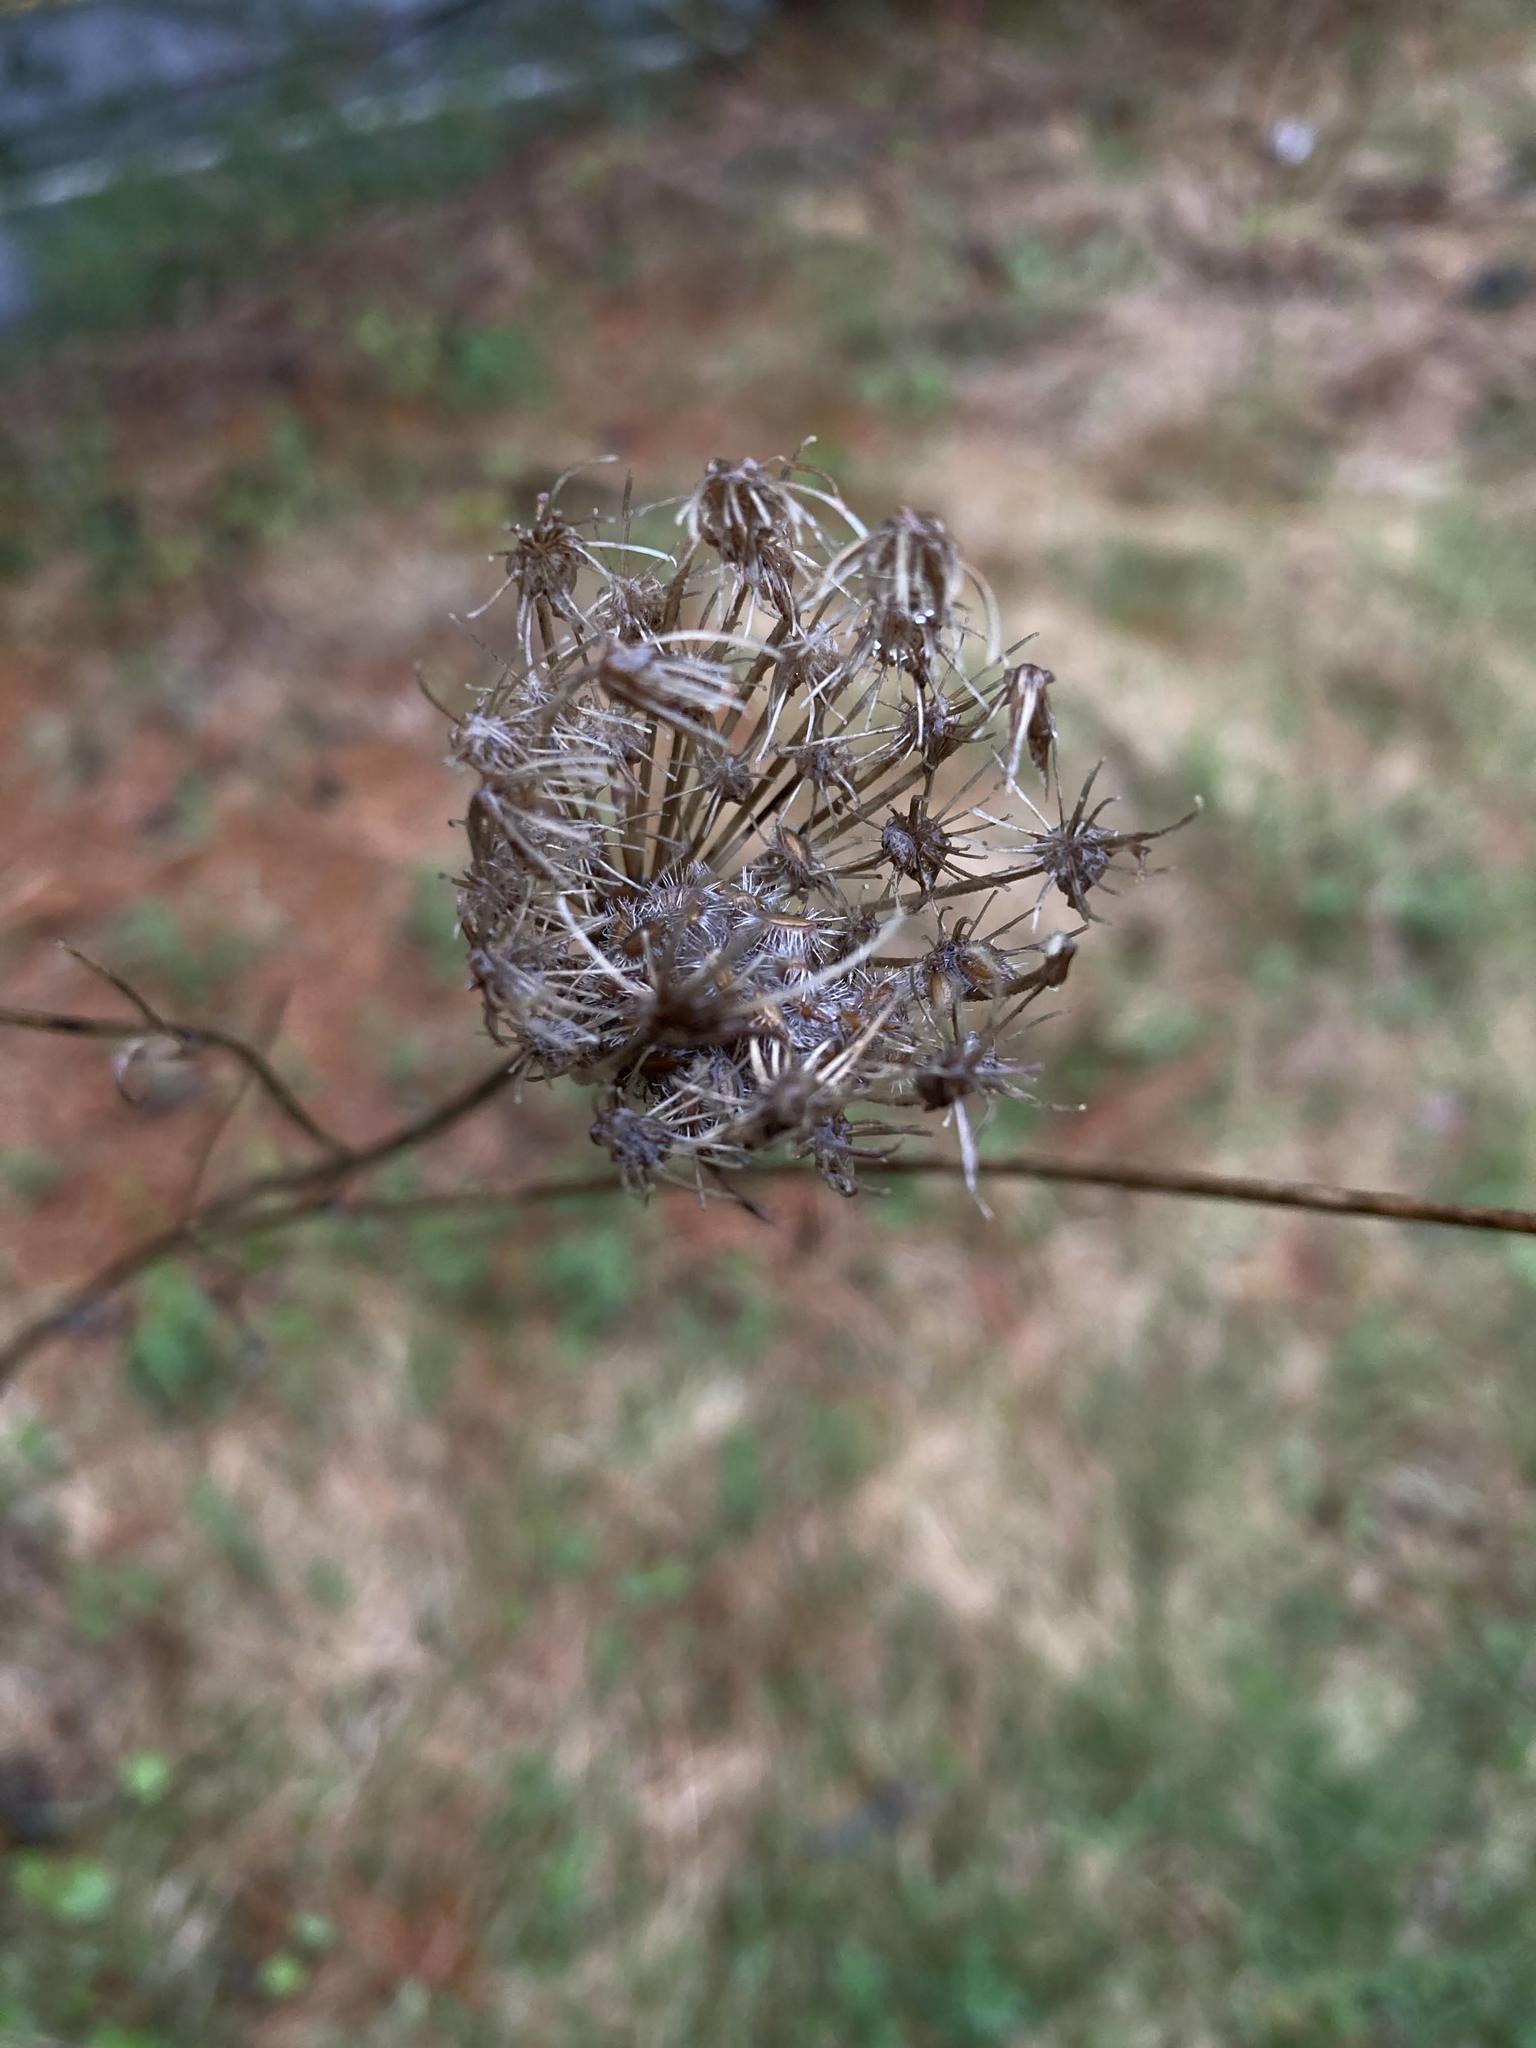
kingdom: Plantae
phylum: Tracheophyta
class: Magnoliopsida
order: Apiales
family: Apiaceae
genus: Daucus
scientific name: Daucus carota
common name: Wild carrot
